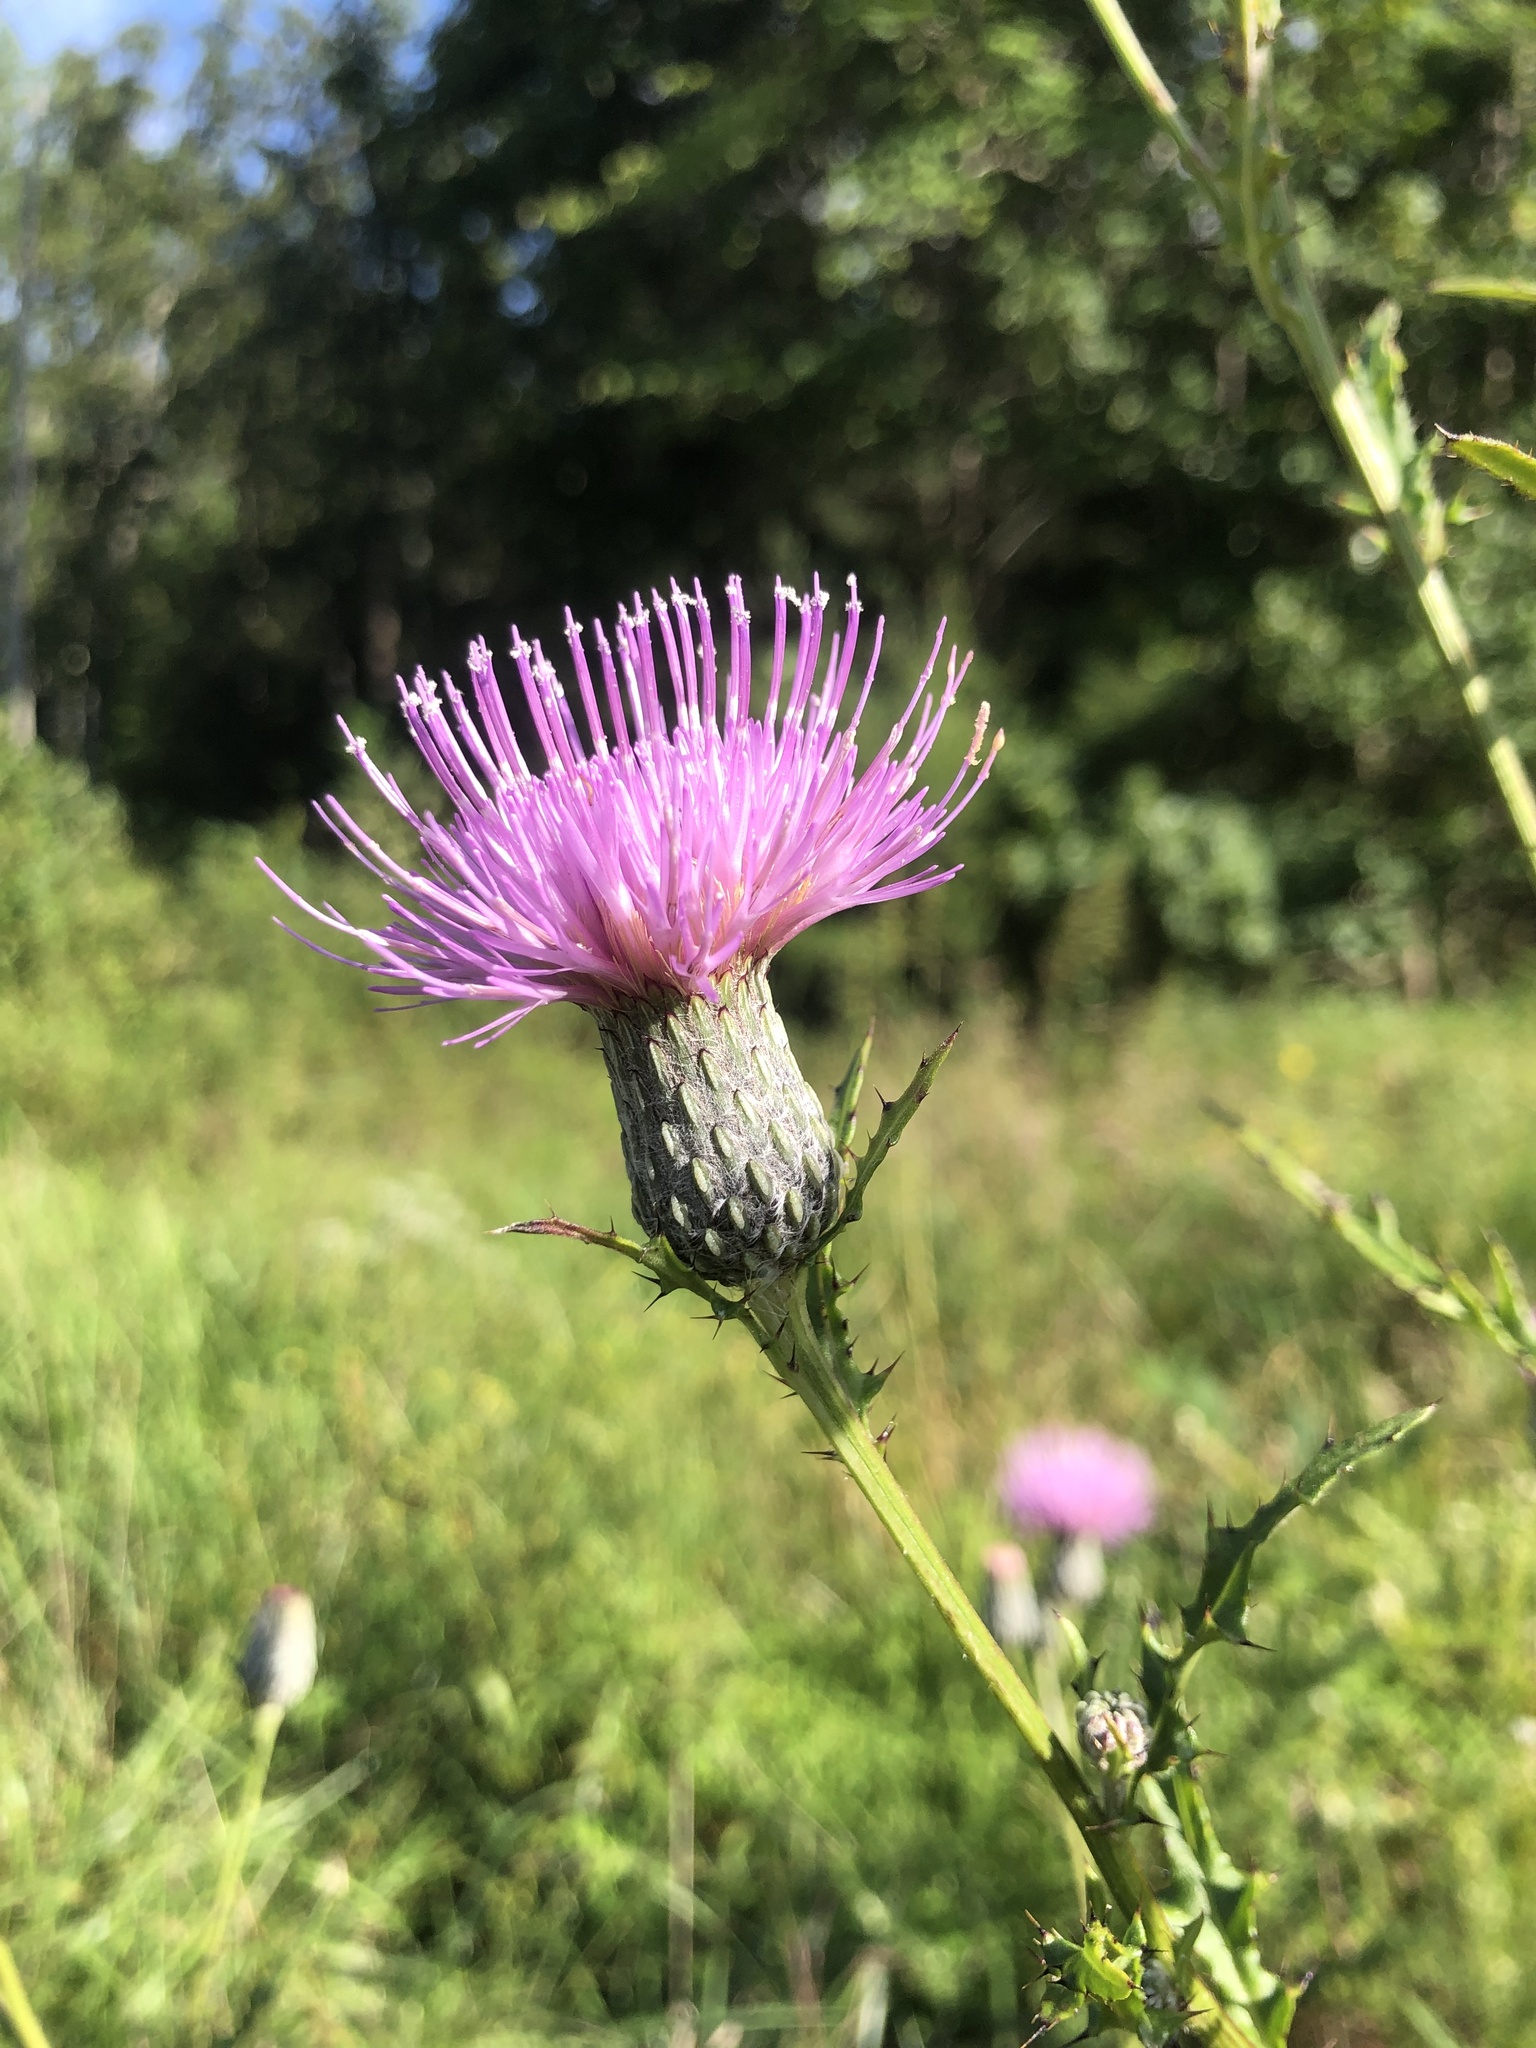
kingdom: Plantae
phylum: Tracheophyta
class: Magnoliopsida
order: Asterales
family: Asteraceae
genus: Cirsium
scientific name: Cirsium muticum
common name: Dunce-nettle
